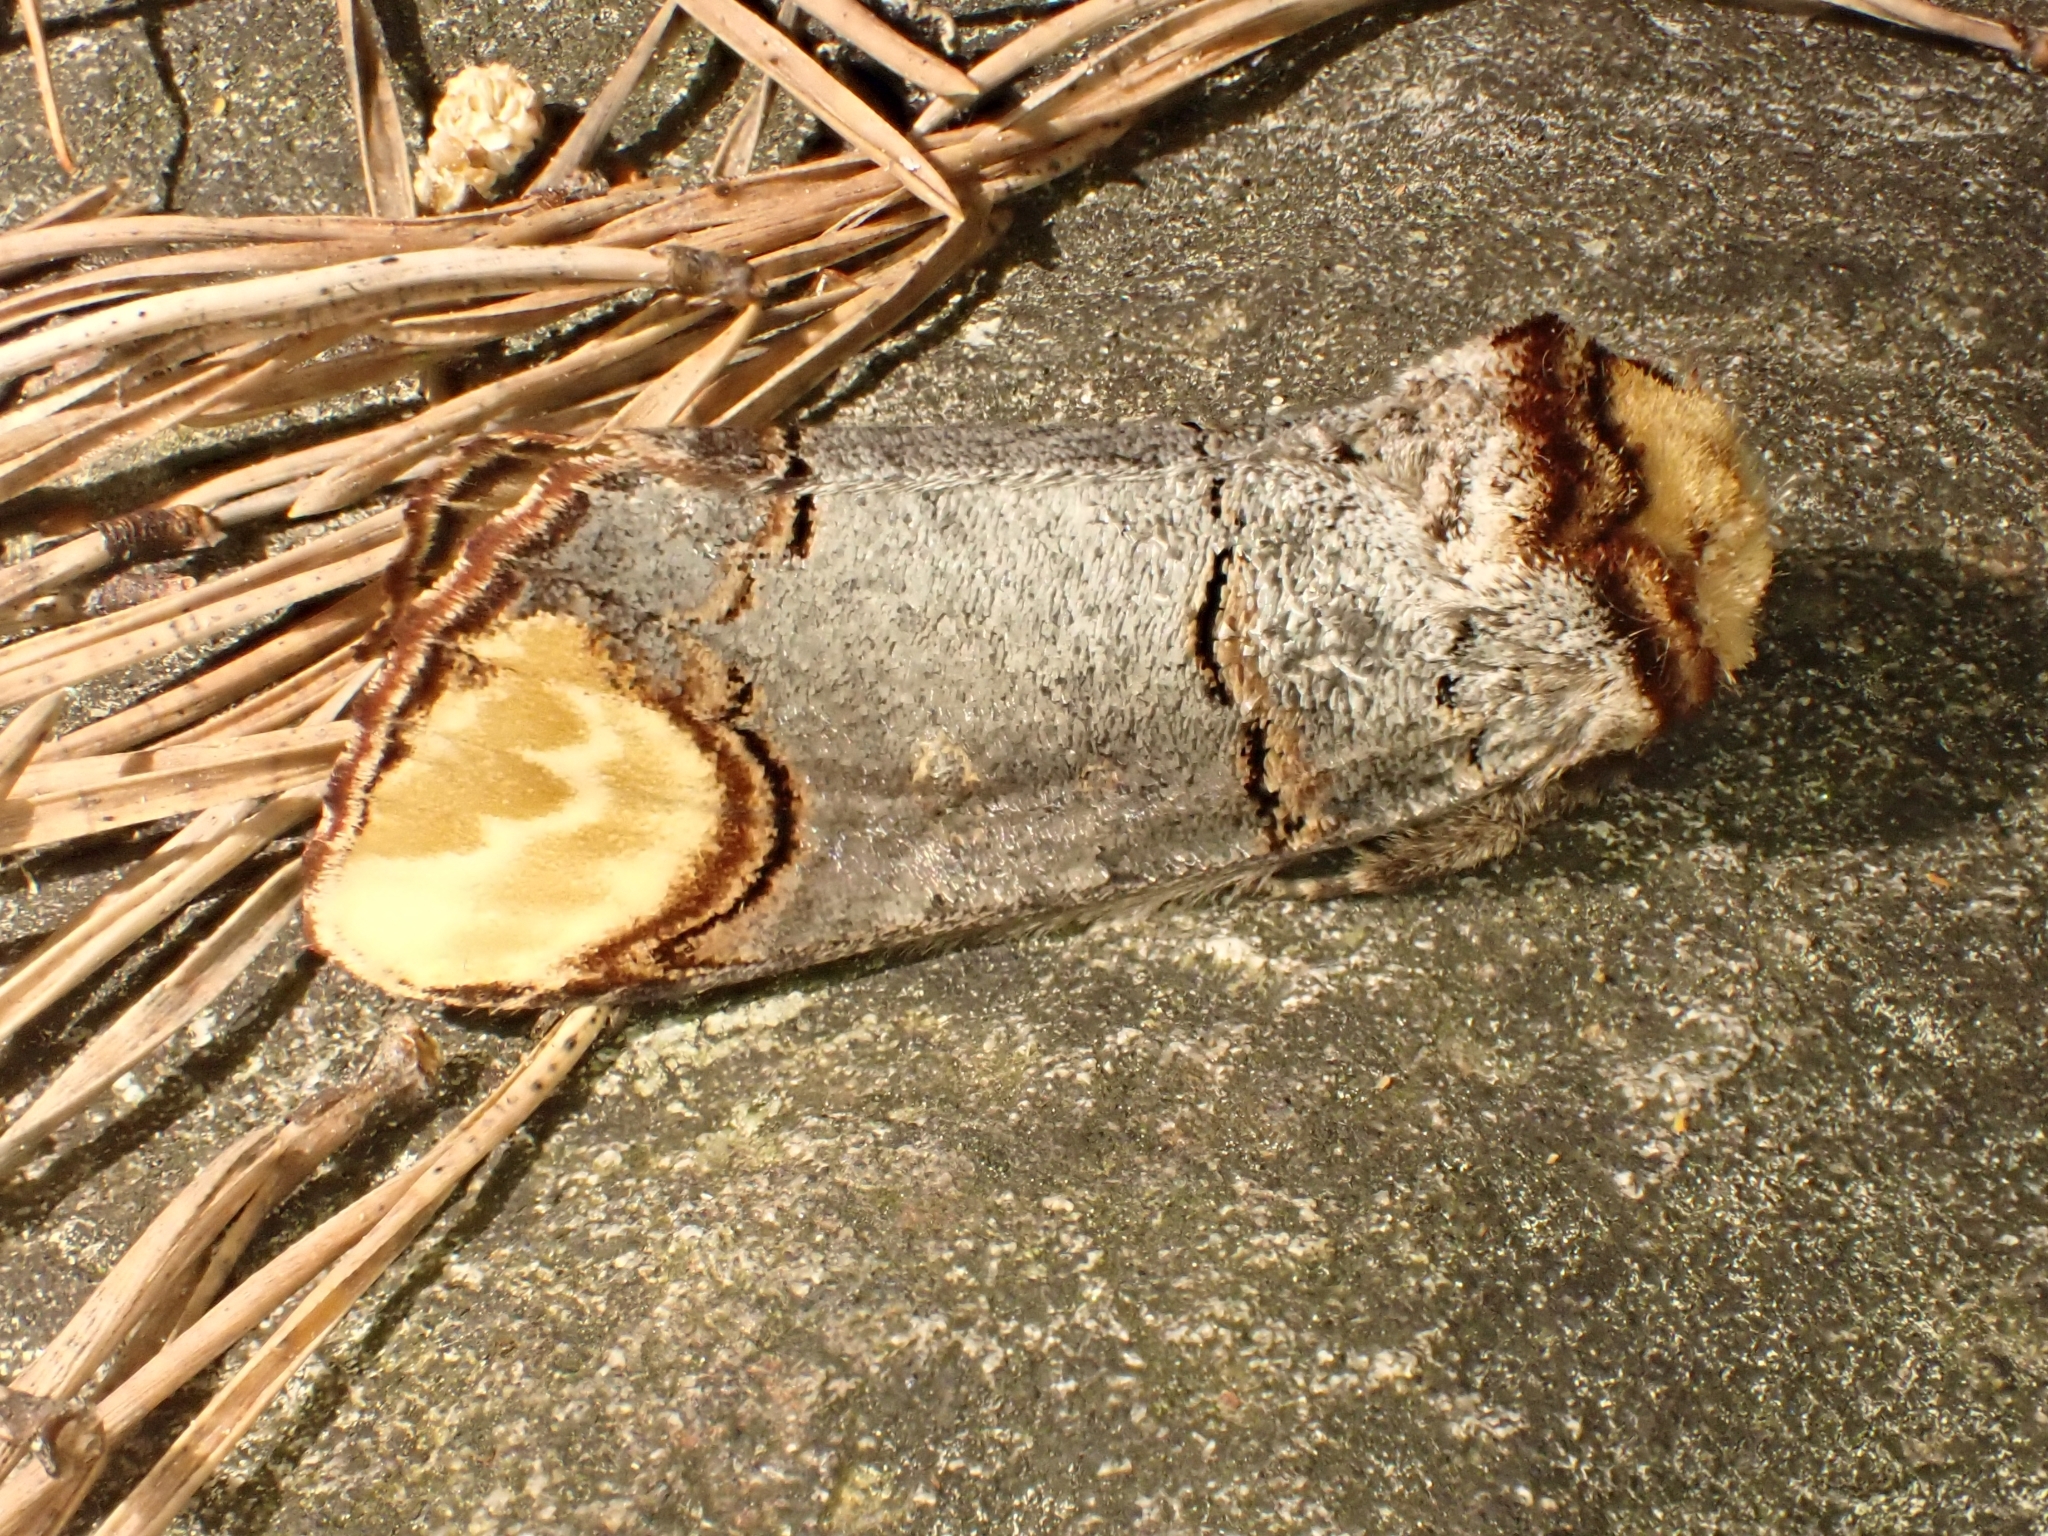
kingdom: Animalia
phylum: Arthropoda
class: Insecta
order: Lepidoptera
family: Notodontidae
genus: Phalera
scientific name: Phalera bucephala
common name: Buff-tip
